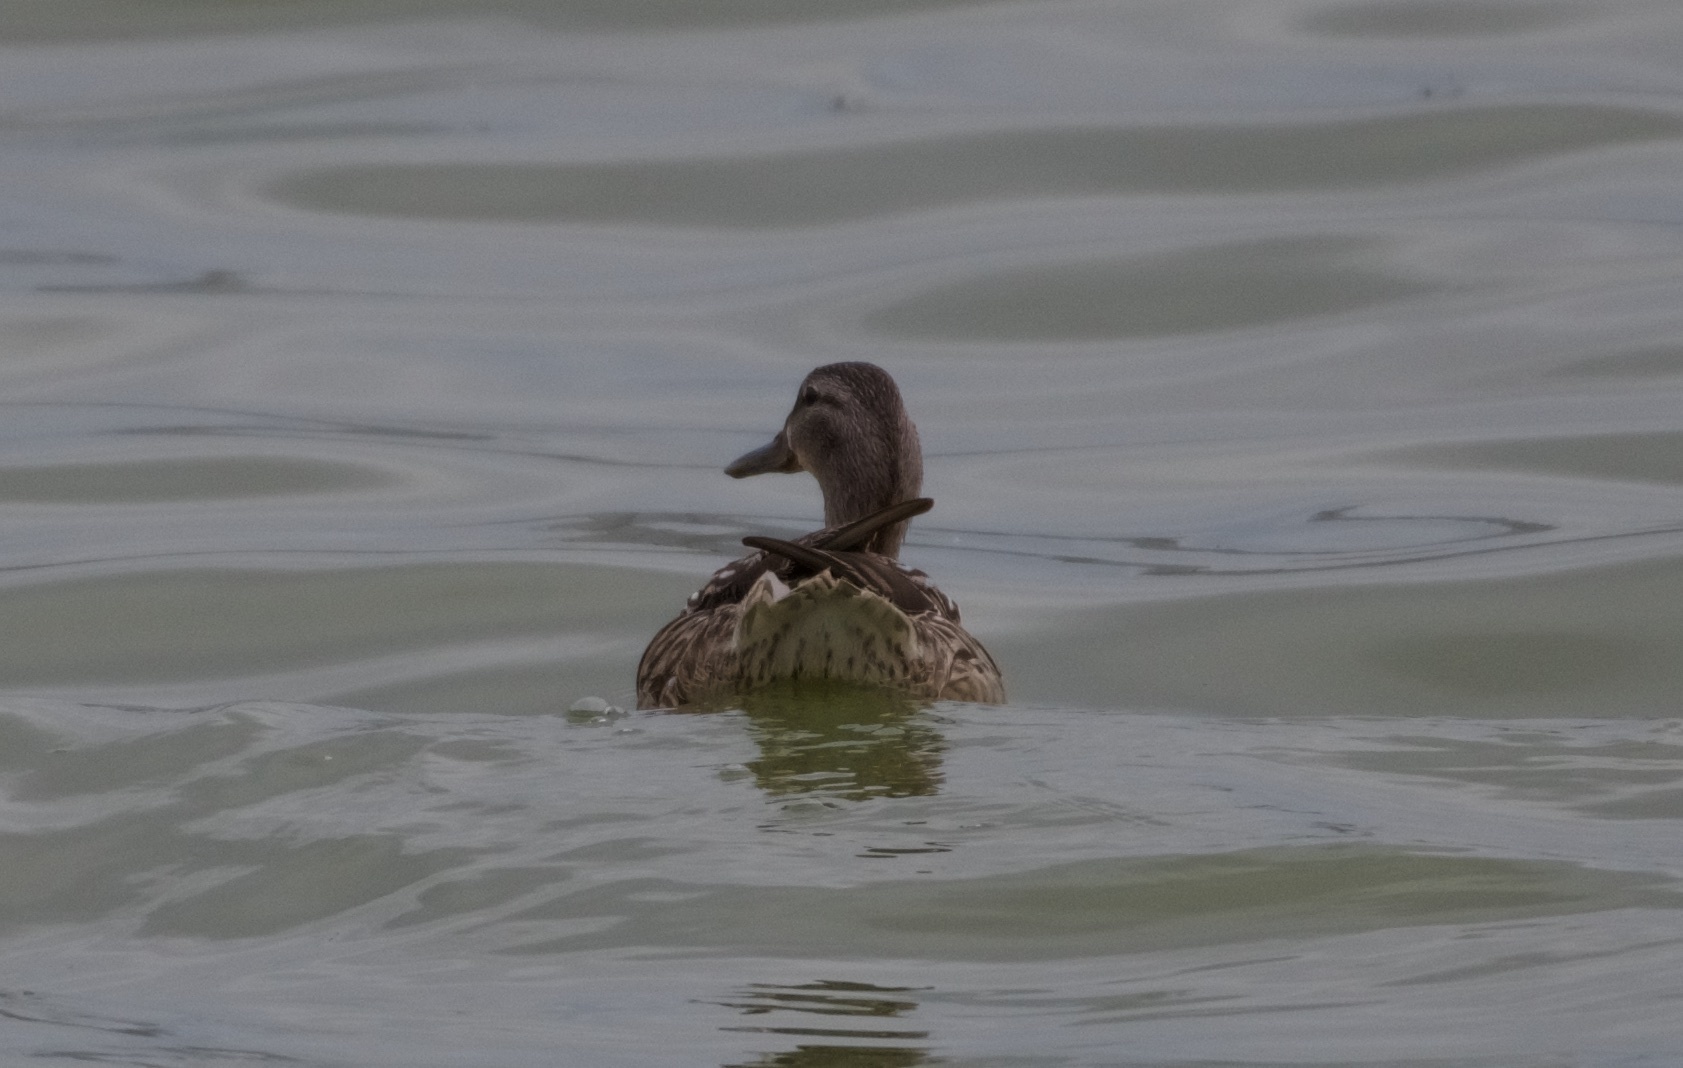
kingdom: Animalia
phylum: Chordata
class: Aves
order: Anseriformes
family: Anatidae
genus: Anas
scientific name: Anas platyrhynchos
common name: Mallard
